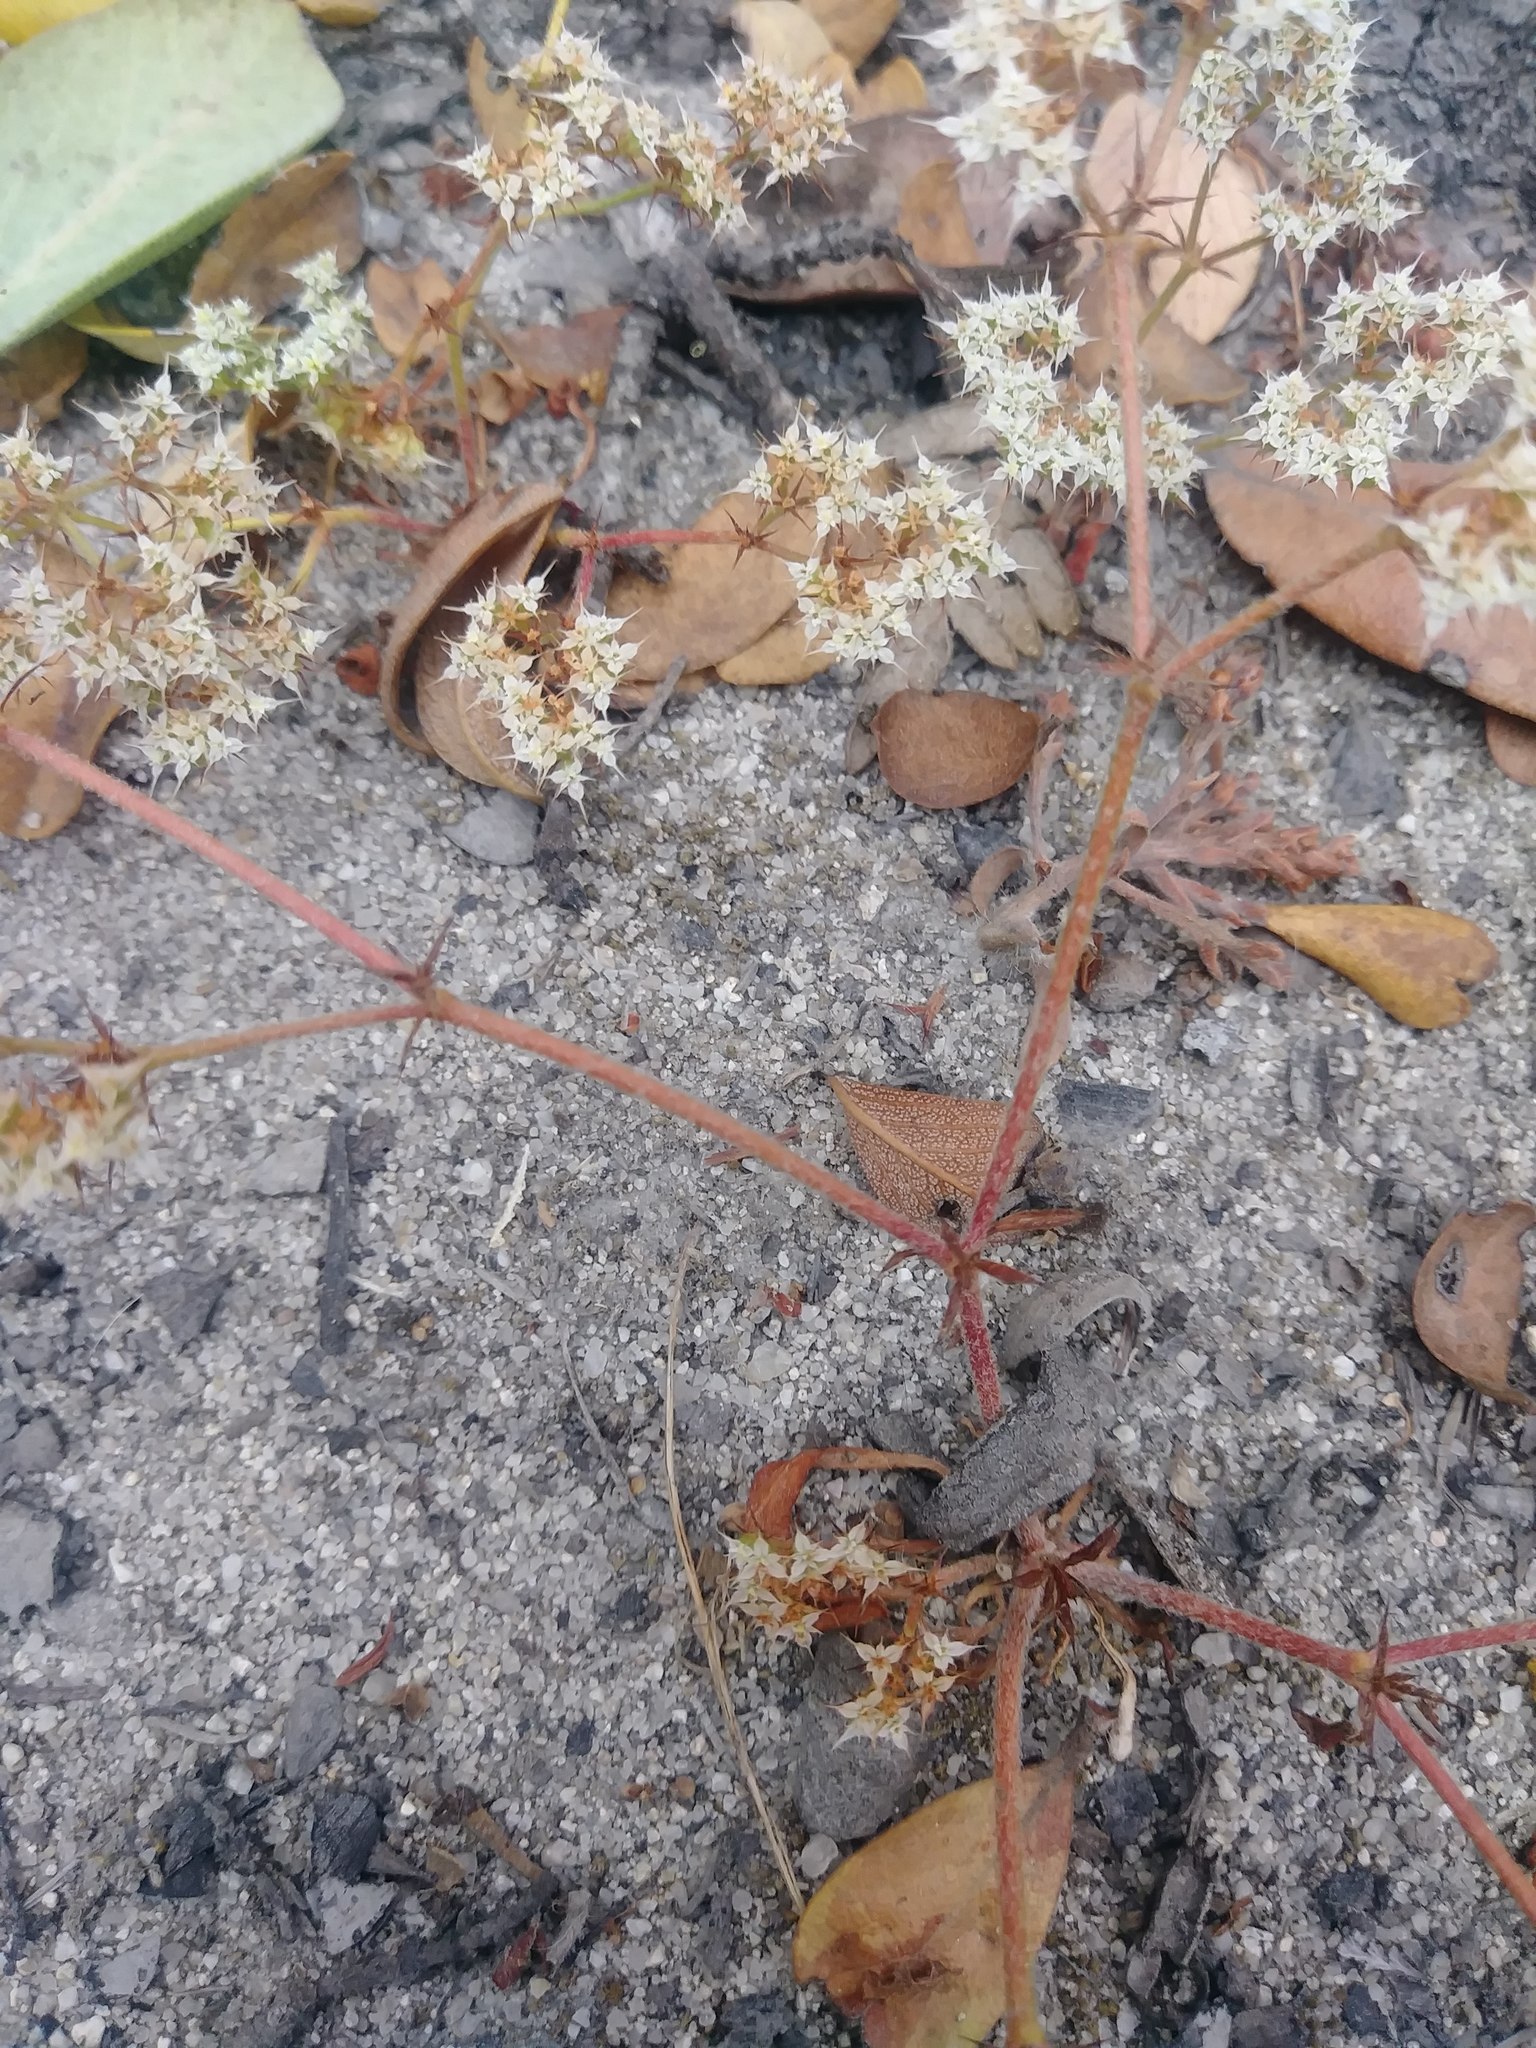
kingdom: Plantae
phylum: Tracheophyta
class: Magnoliopsida
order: Caryophyllales
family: Polygonaceae
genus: Chorizanthe
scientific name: Chorizanthe diffusa
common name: Diffuse spineflower
